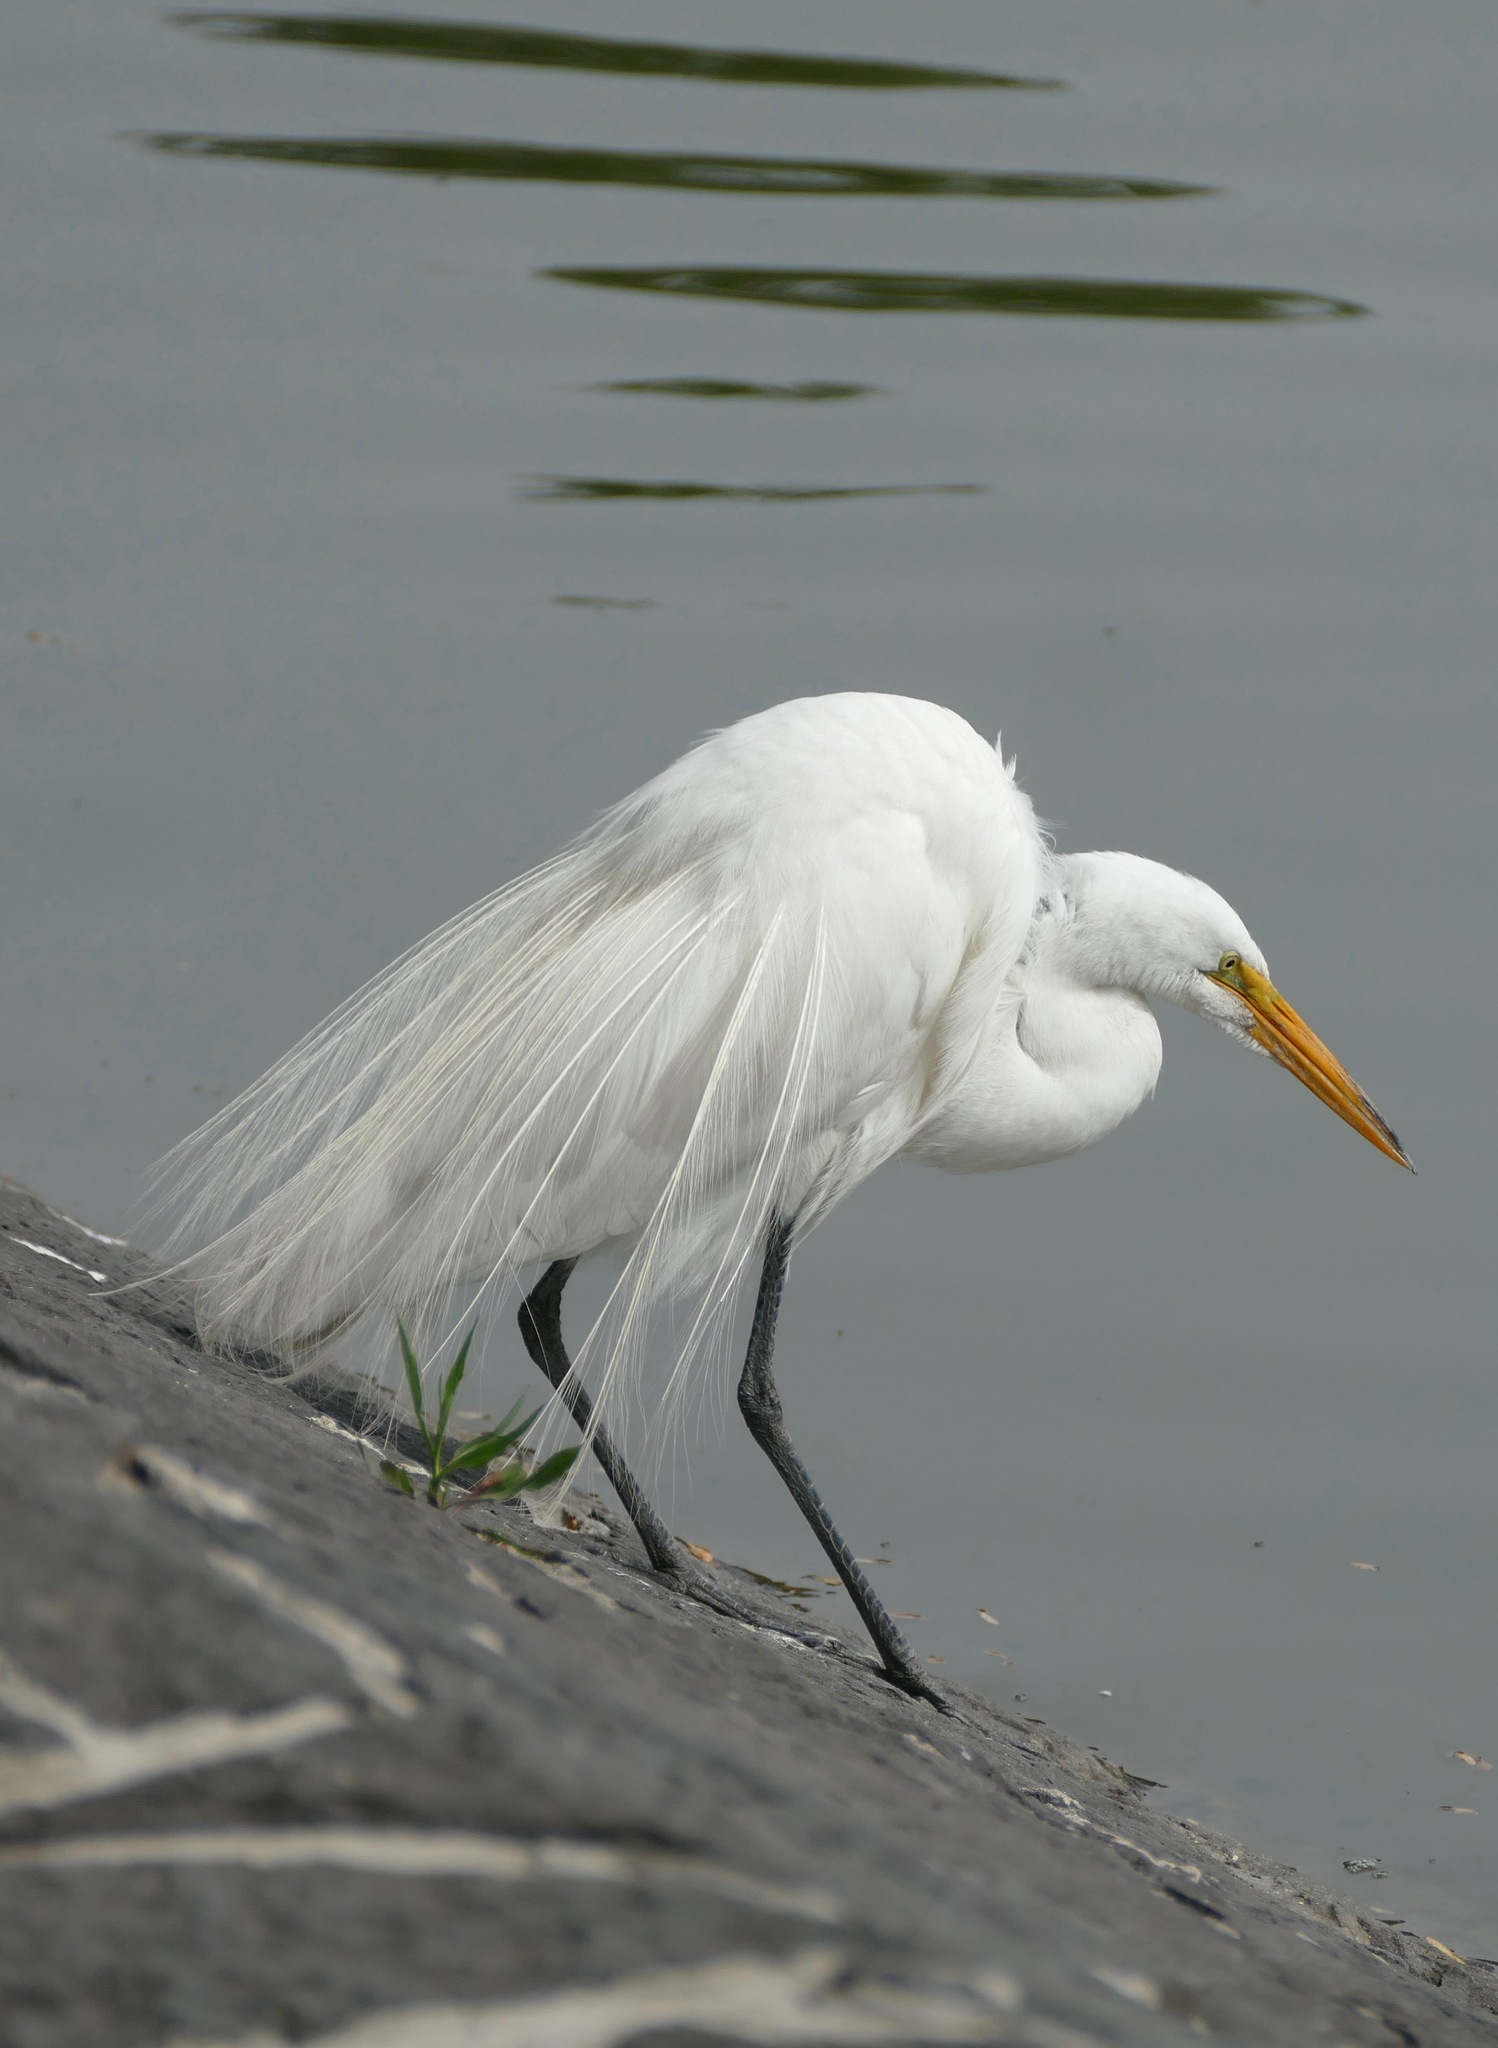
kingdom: Animalia
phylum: Chordata
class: Aves
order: Pelecaniformes
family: Ardeidae
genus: Ardea
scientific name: Ardea alba
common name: Great egret
